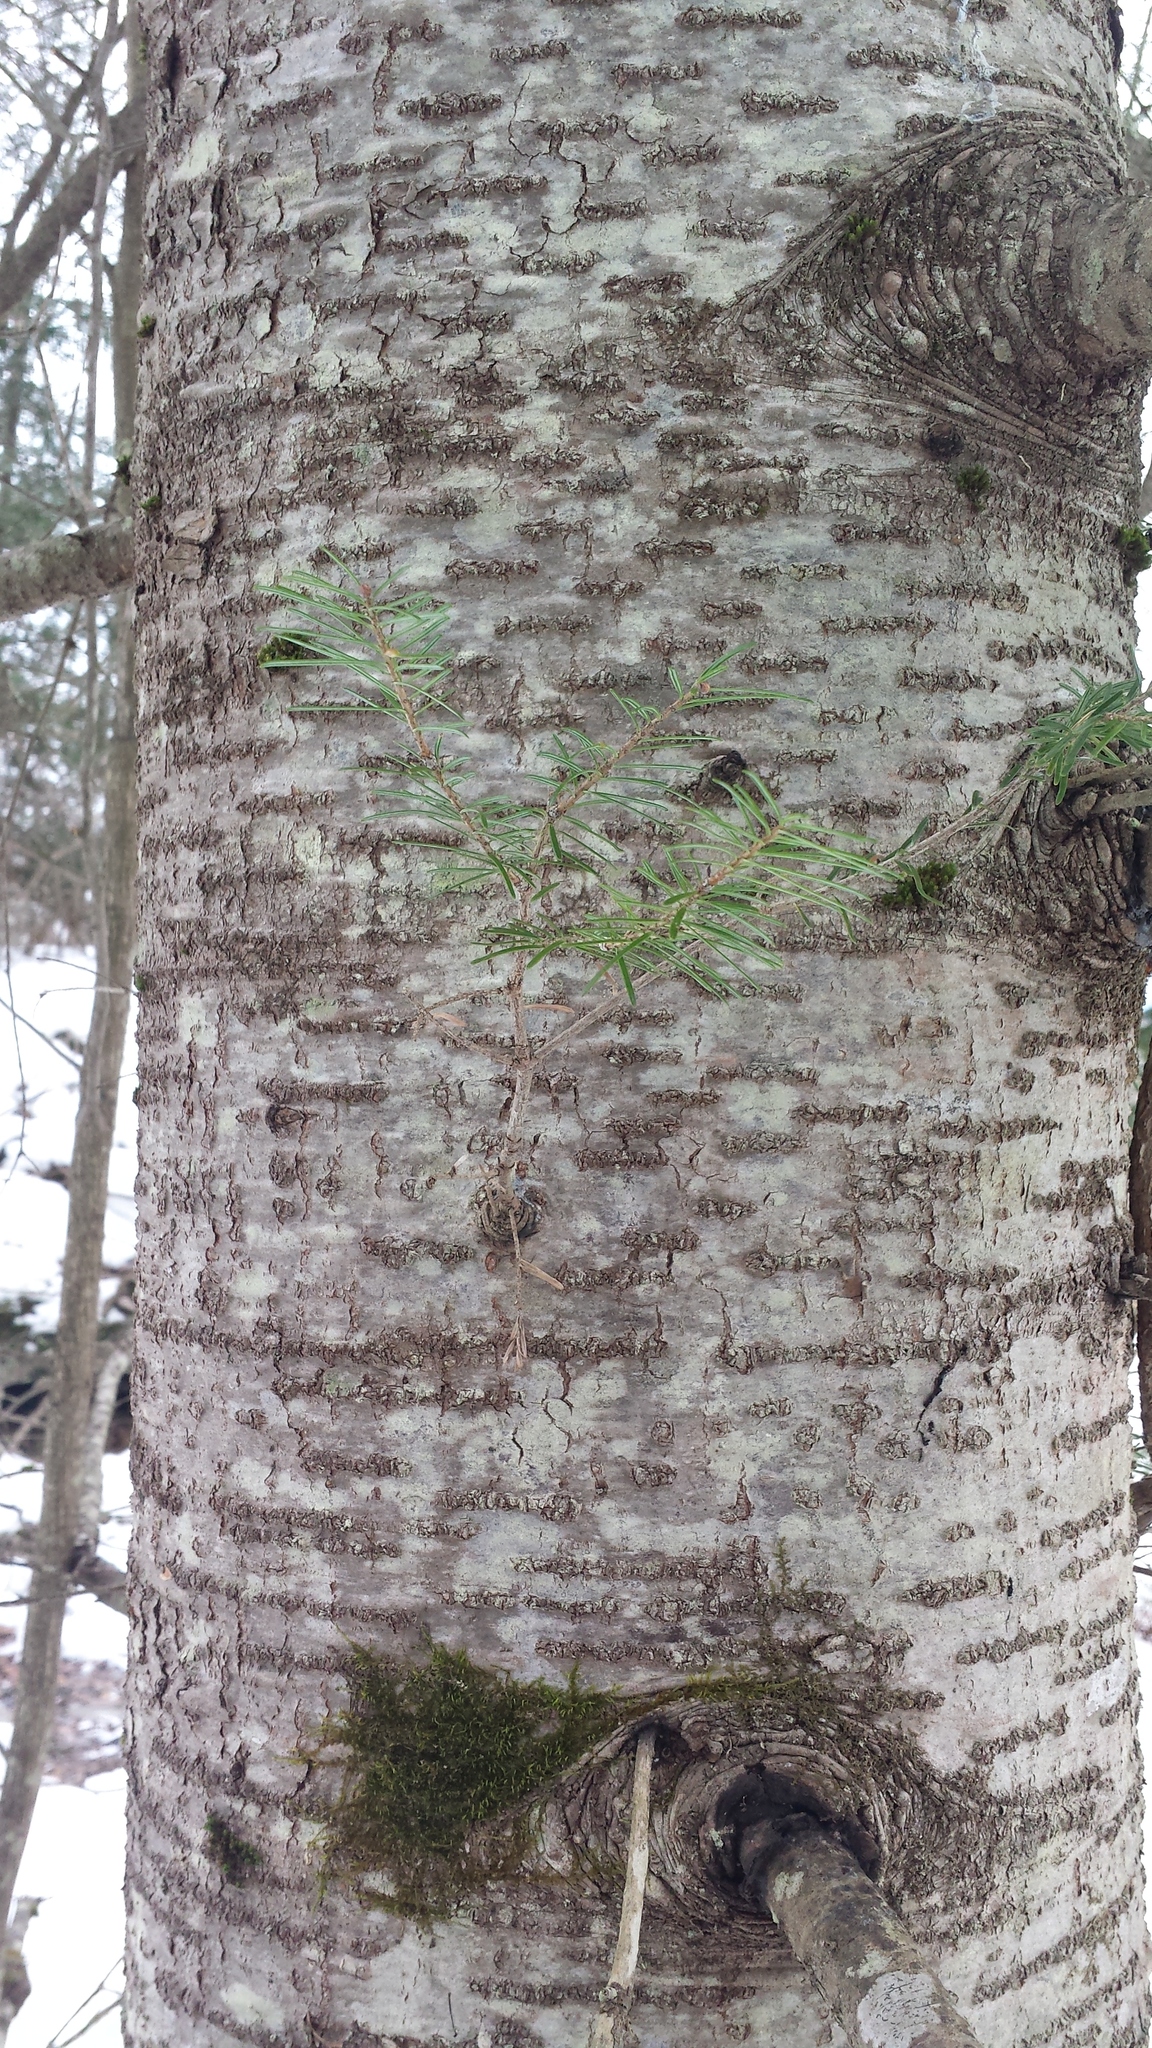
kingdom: Plantae
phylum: Tracheophyta
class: Pinopsida
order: Pinales
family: Pinaceae
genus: Abies
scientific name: Abies balsamea
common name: Balsam fir
